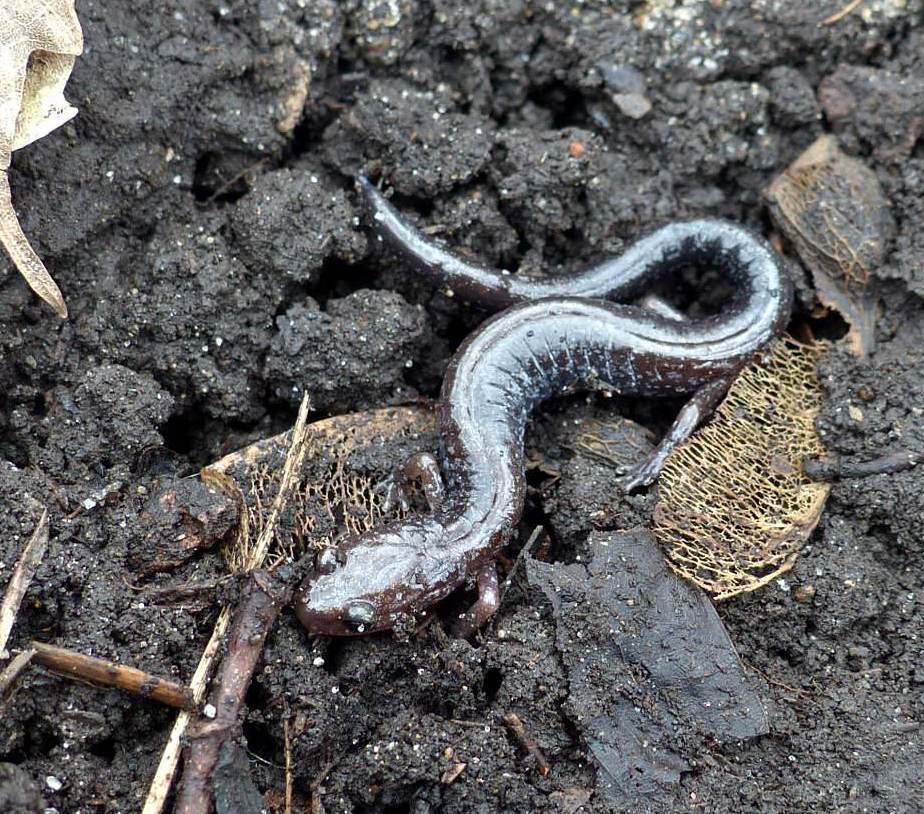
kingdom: Animalia
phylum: Chordata
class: Amphibia
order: Caudata
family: Plethodontidae
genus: Plethodon
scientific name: Plethodon cinereus
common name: Redback salamander
